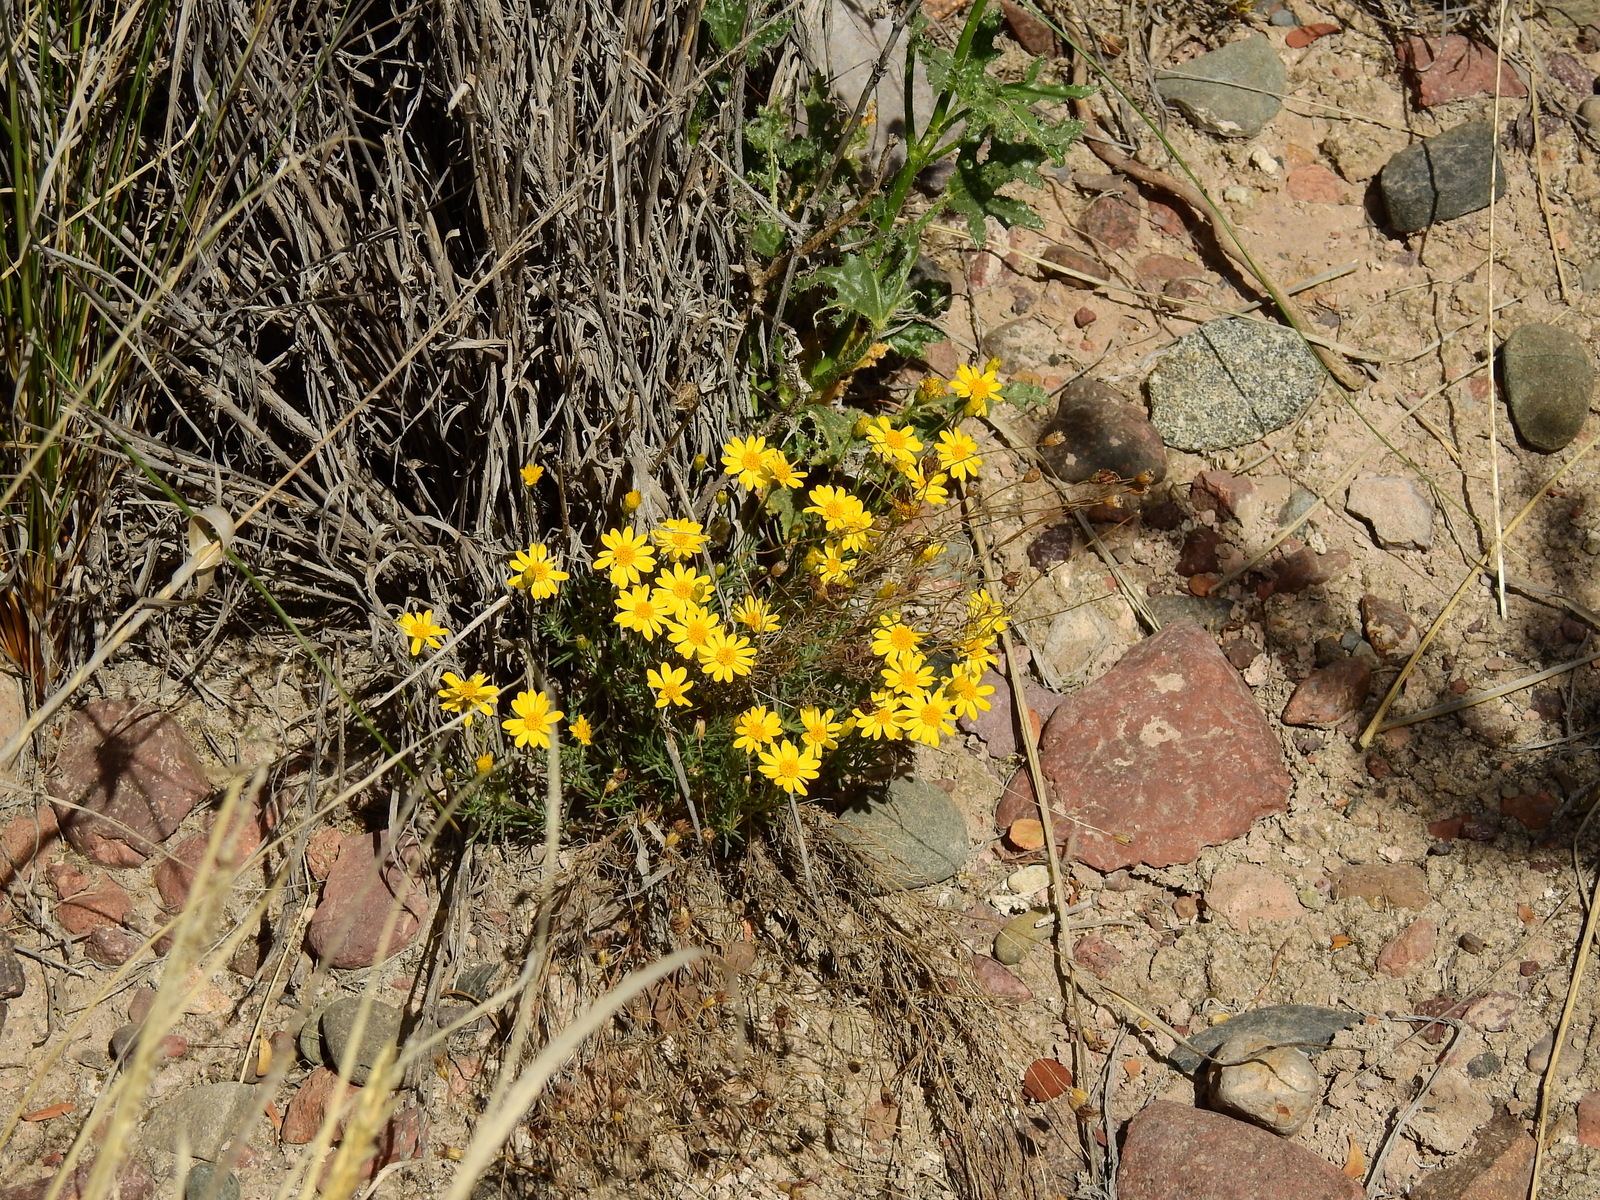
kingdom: Plantae
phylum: Tracheophyta
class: Magnoliopsida
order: Asterales
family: Asteraceae
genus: Thymophylla
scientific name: Thymophylla pentachaeta
